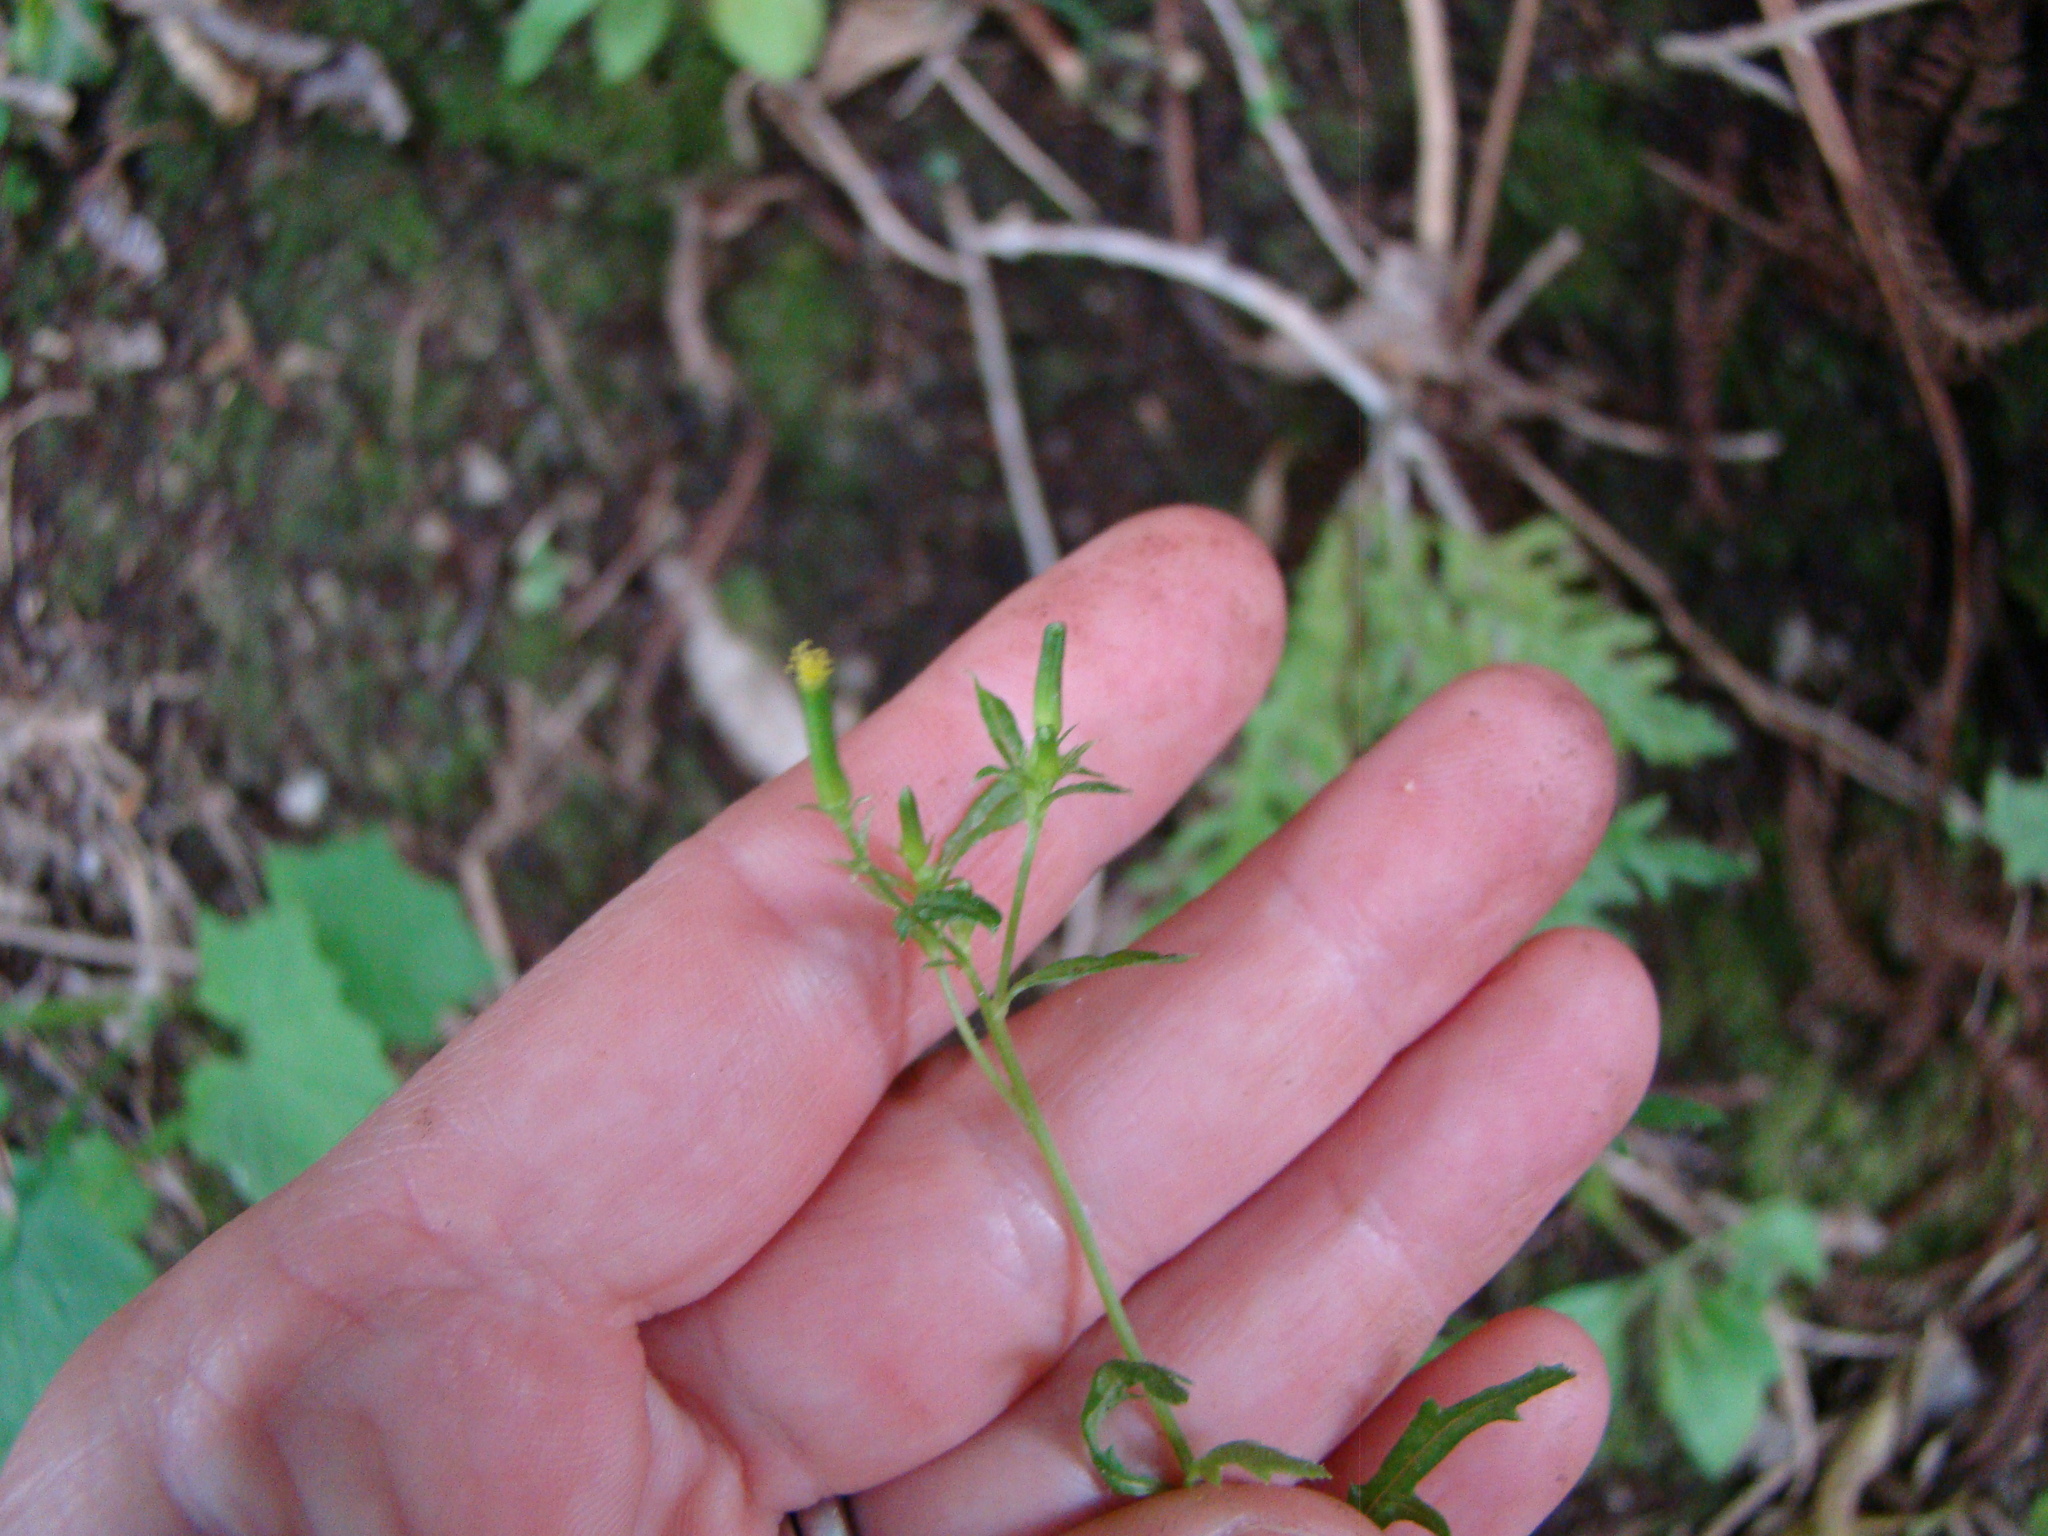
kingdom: Plantae
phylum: Tracheophyta
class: Magnoliopsida
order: Asterales
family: Asteraceae
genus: Senecio
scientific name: Senecio bipinnatisectus
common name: Australian fireweed
